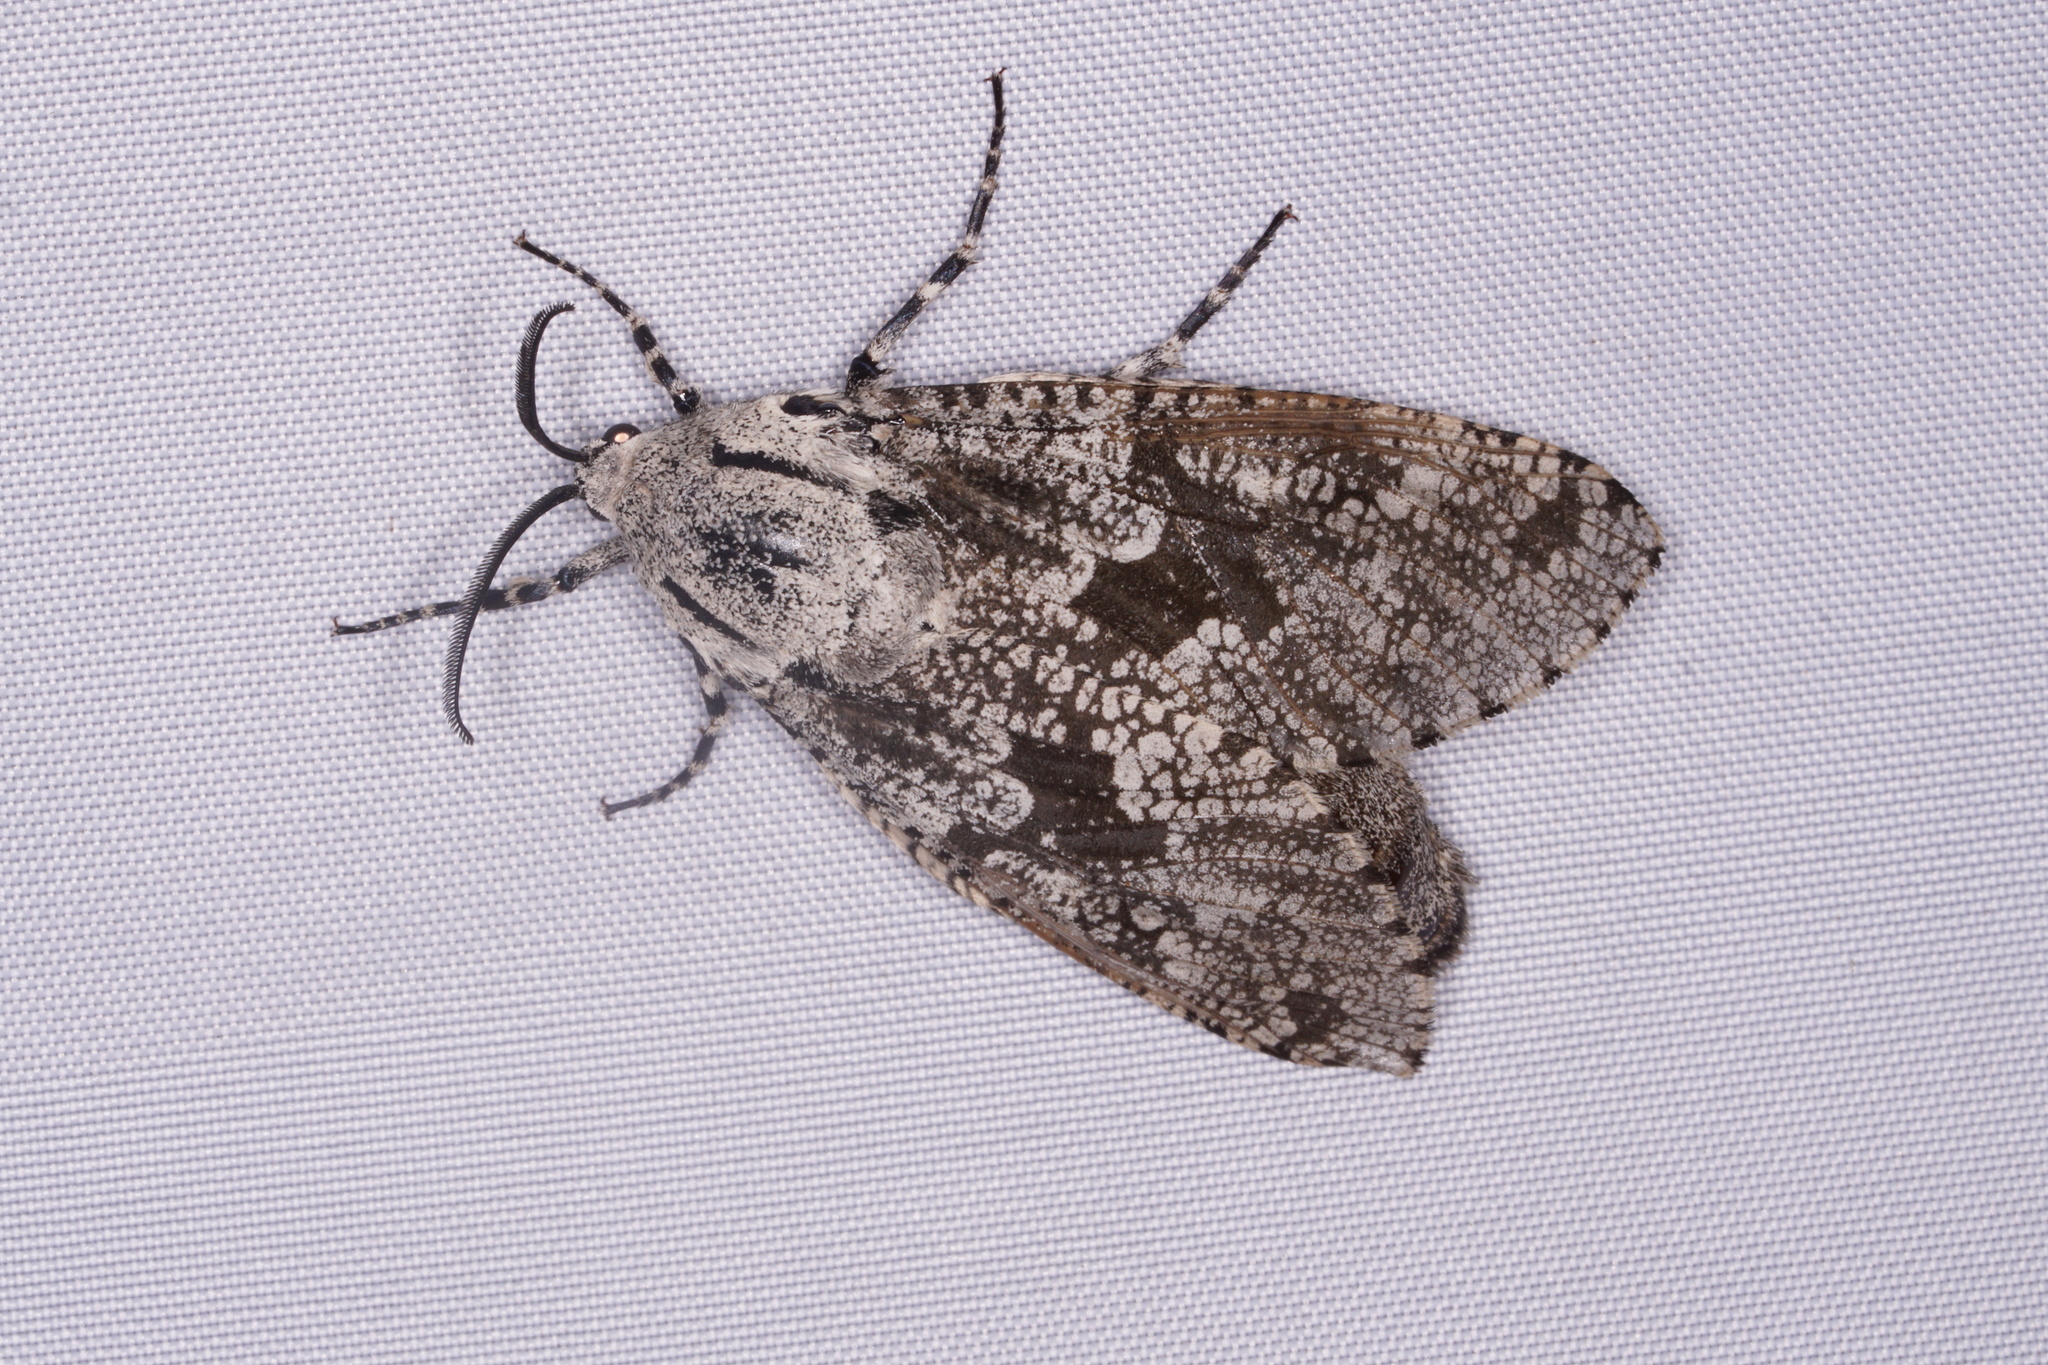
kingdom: Animalia
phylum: Arthropoda
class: Insecta
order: Lepidoptera
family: Cossidae
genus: Prionoxystus
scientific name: Prionoxystus robiniae
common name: Carpenterworm
